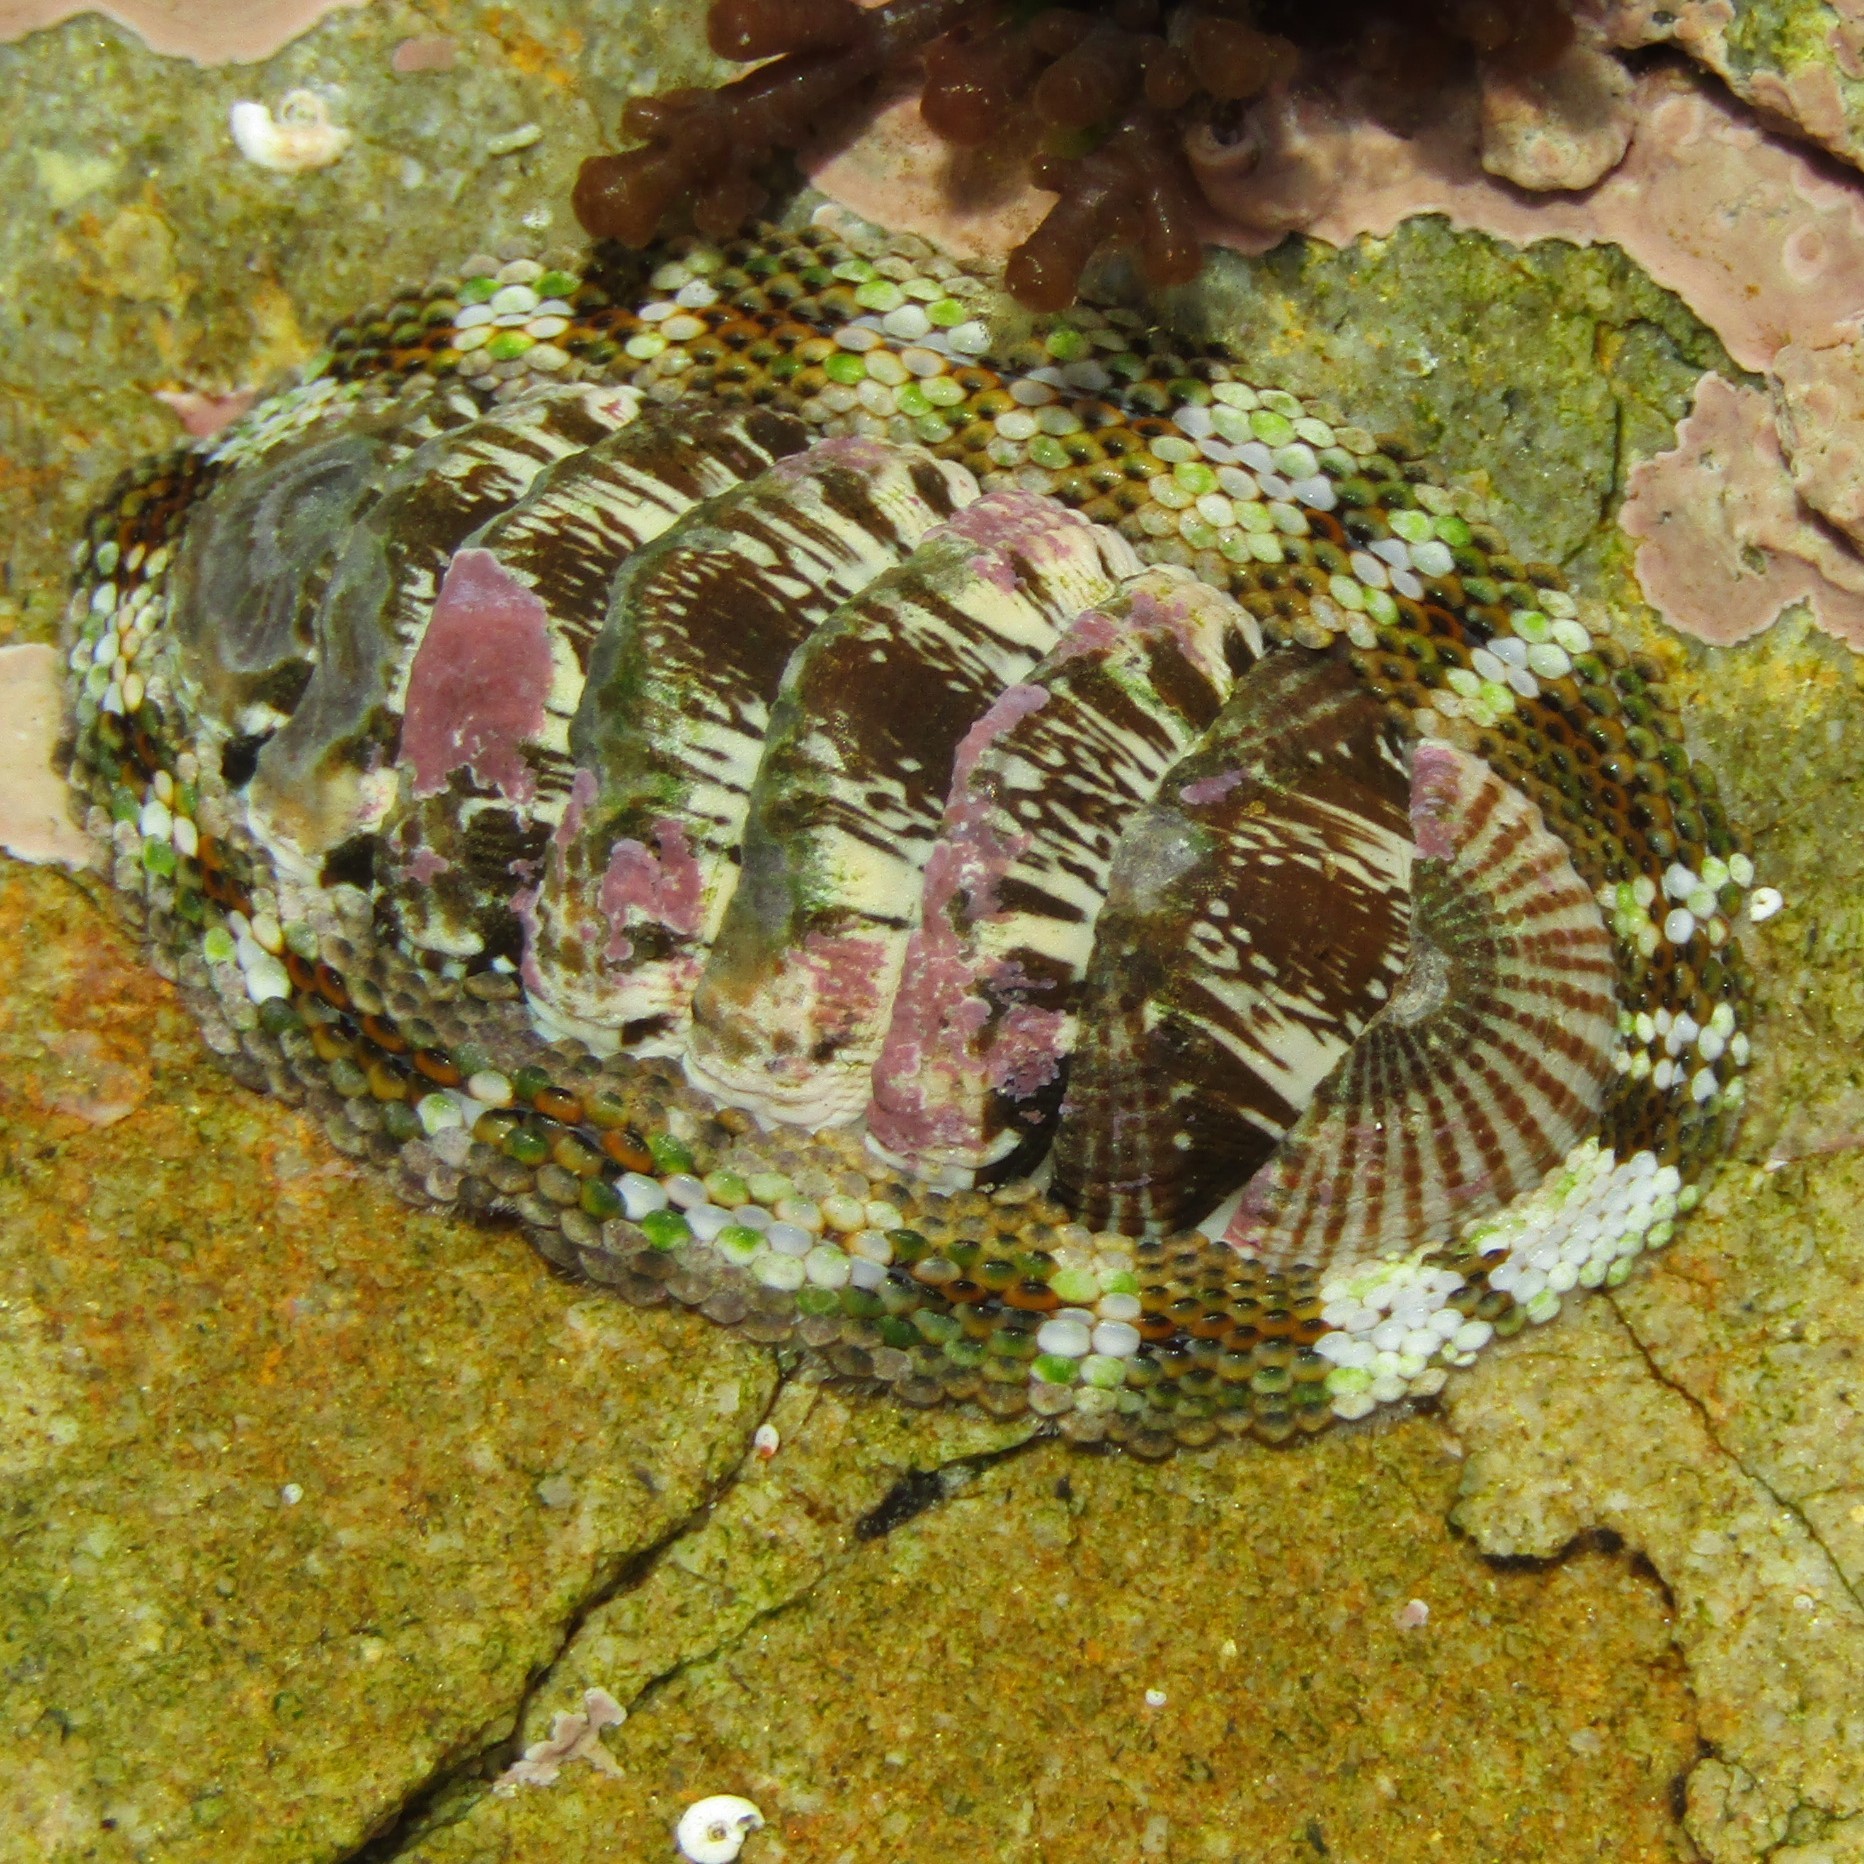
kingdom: Animalia
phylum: Mollusca
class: Polyplacophora
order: Chitonida
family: Chitonidae
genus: Sypharochiton
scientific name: Sypharochiton pelliserpentis
